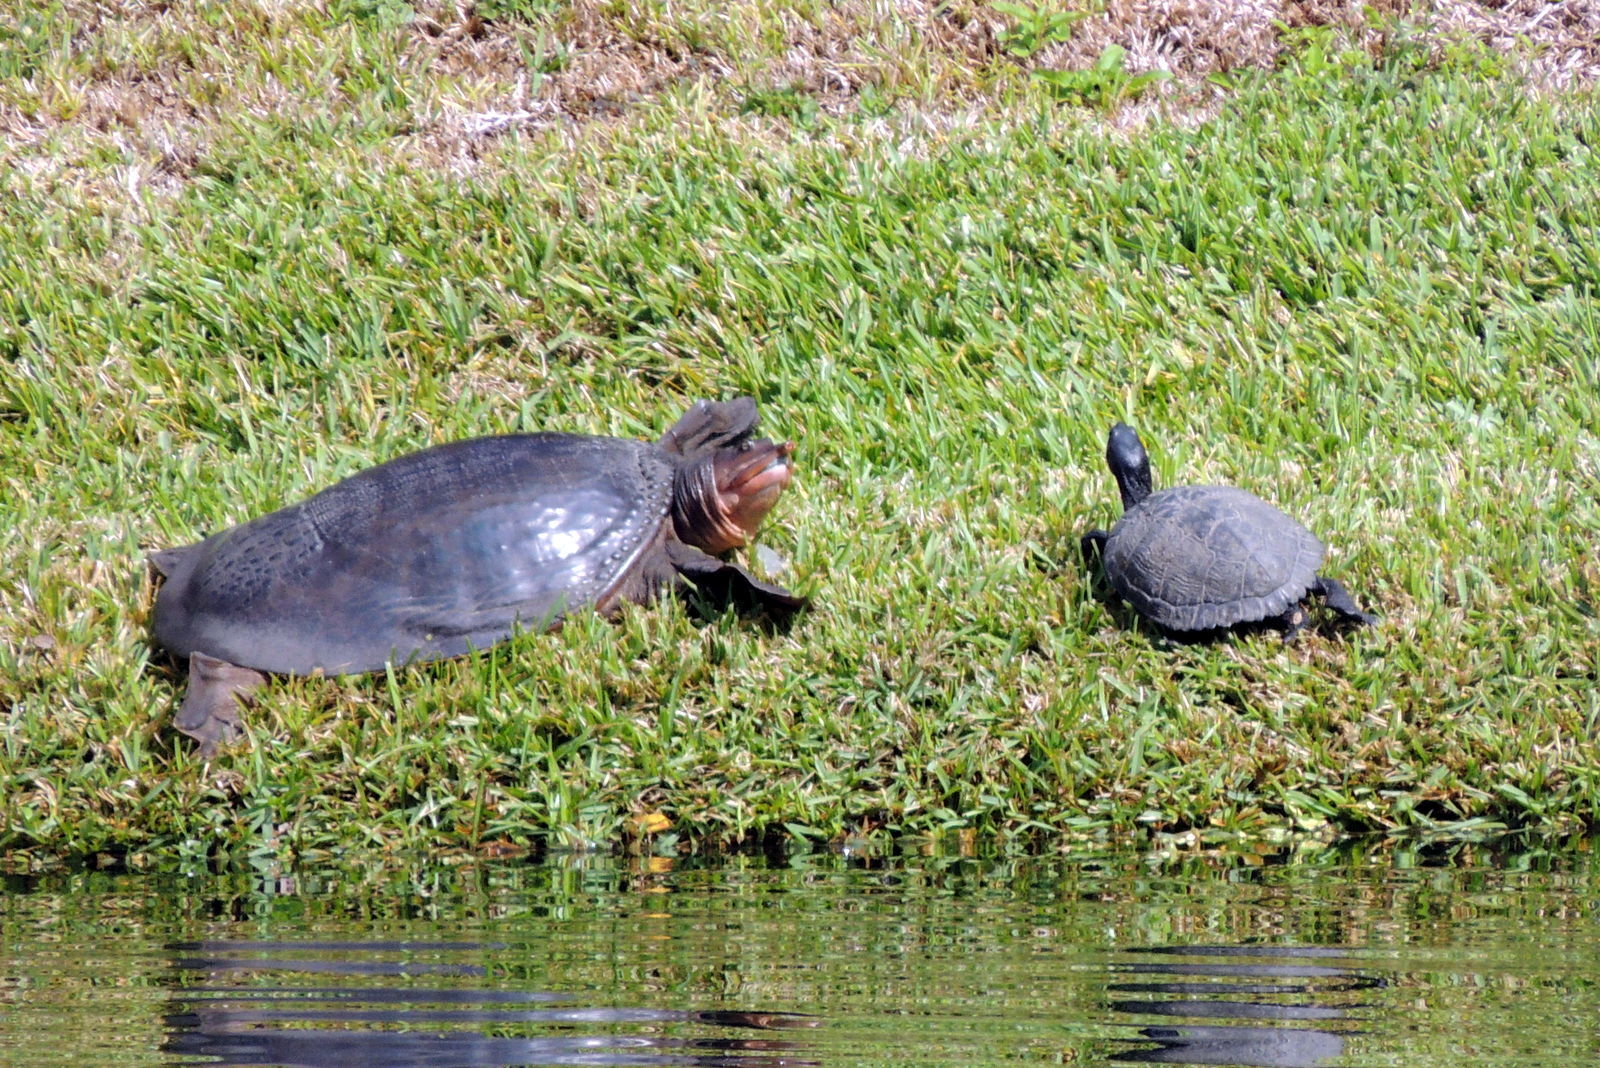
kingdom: Animalia
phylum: Chordata
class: Testudines
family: Trionychidae
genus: Apalone
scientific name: Apalone ferox
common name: Florida softshell turtle
